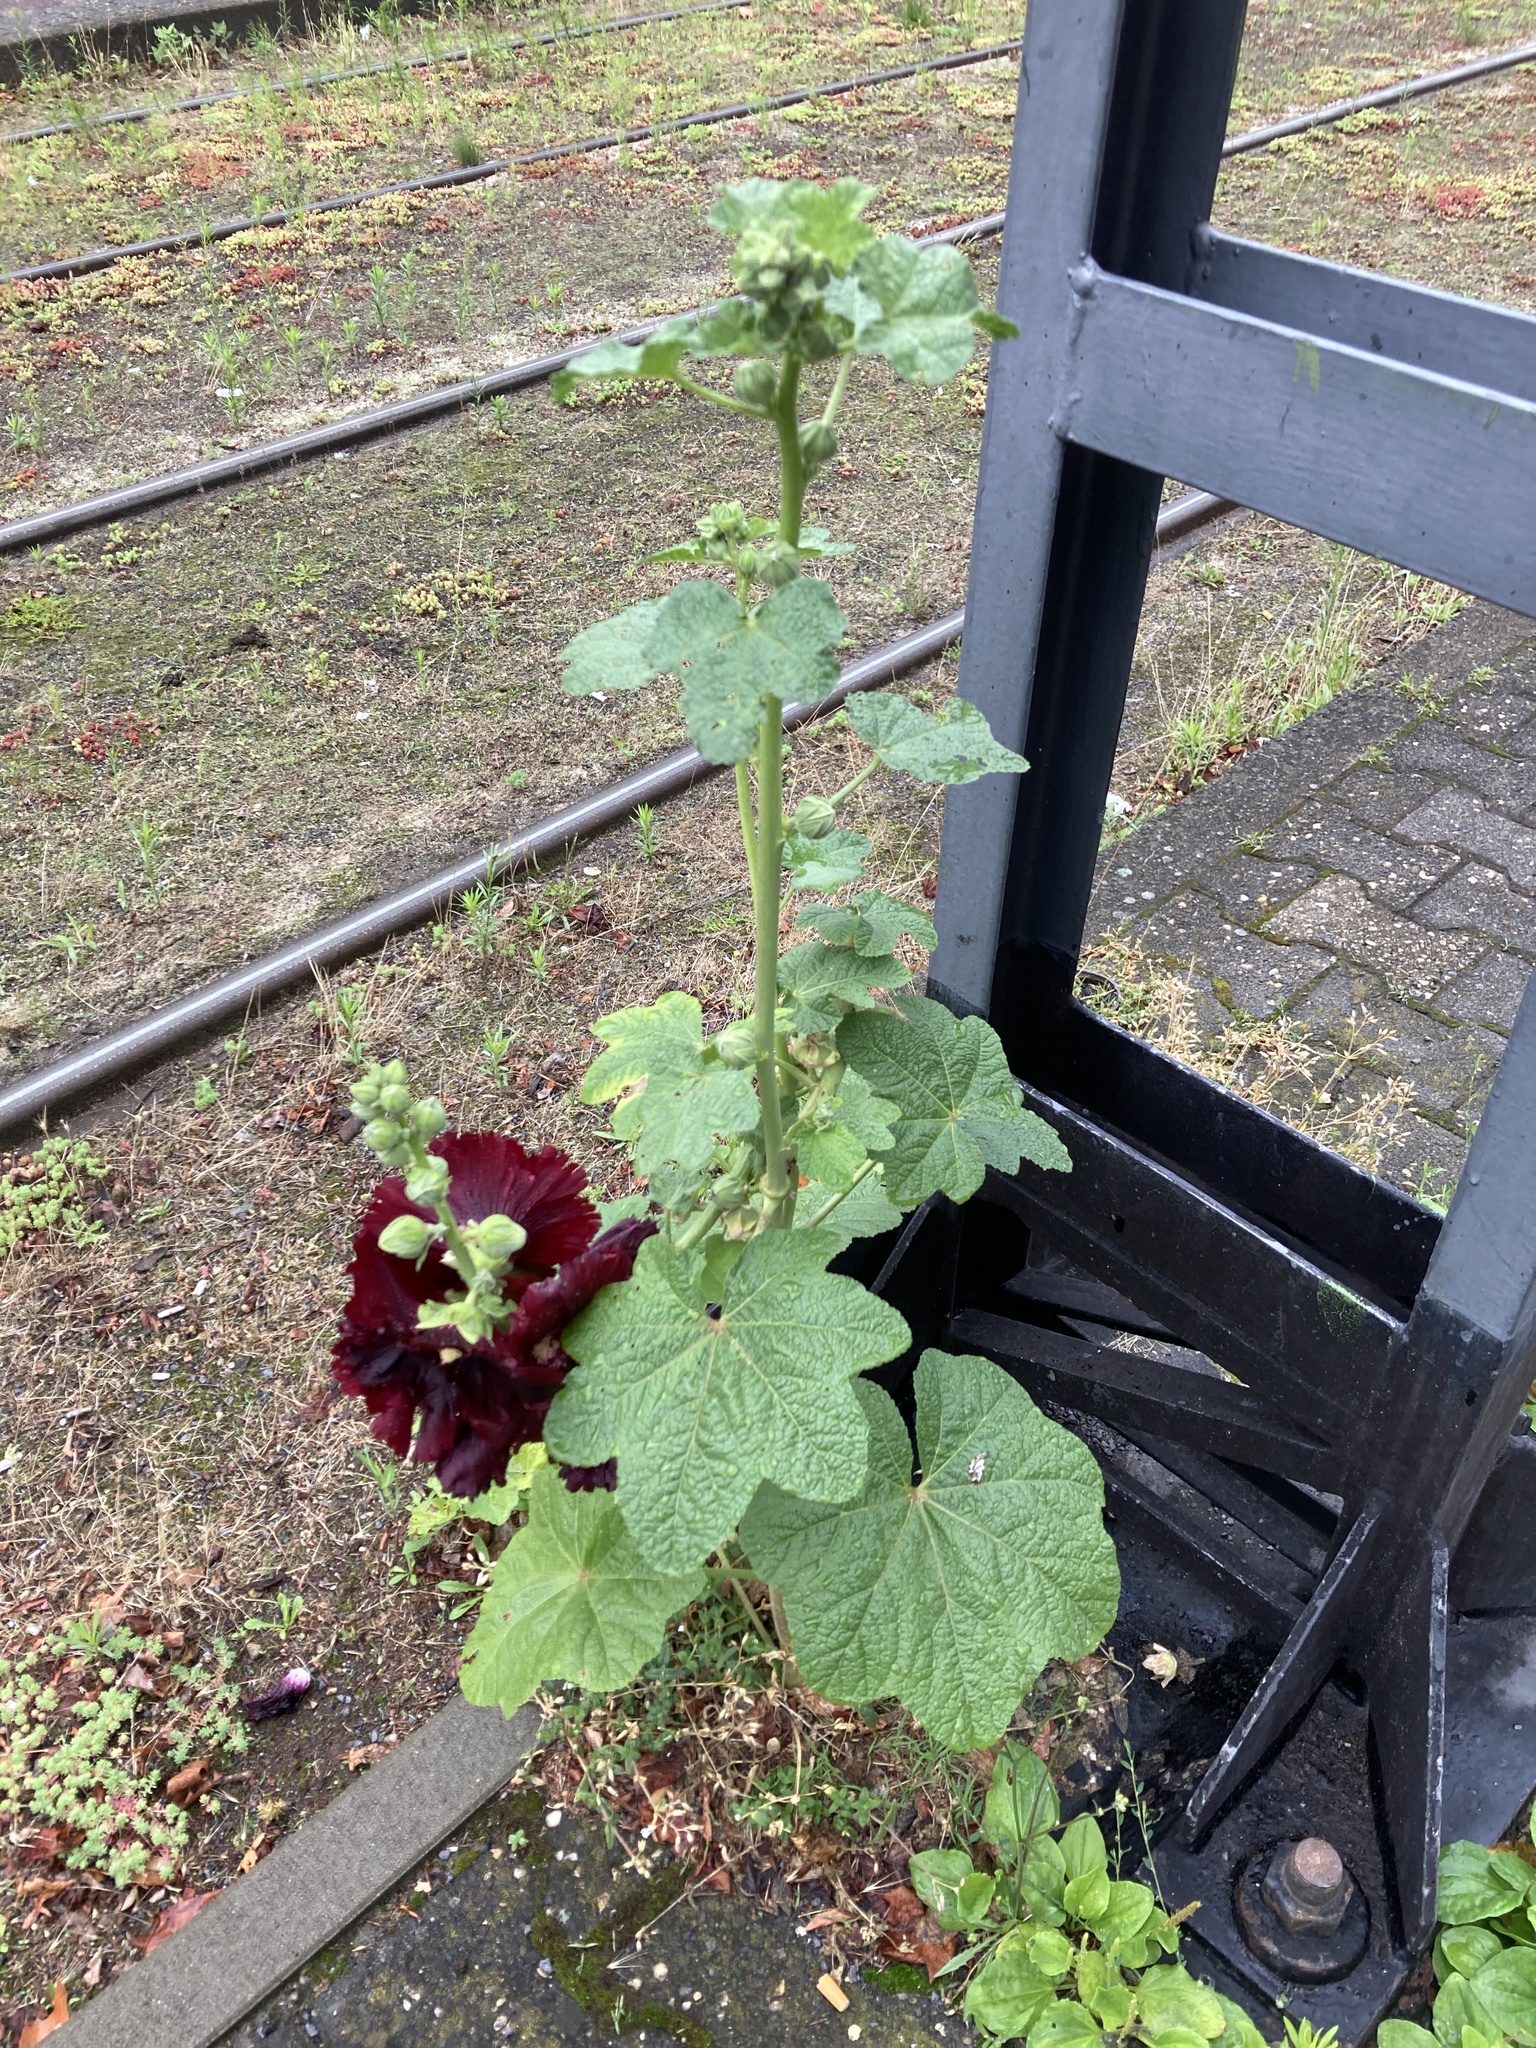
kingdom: Plantae
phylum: Tracheophyta
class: Magnoliopsida
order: Malvales
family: Malvaceae
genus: Alcea
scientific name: Alcea rosea
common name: Hollyhock
